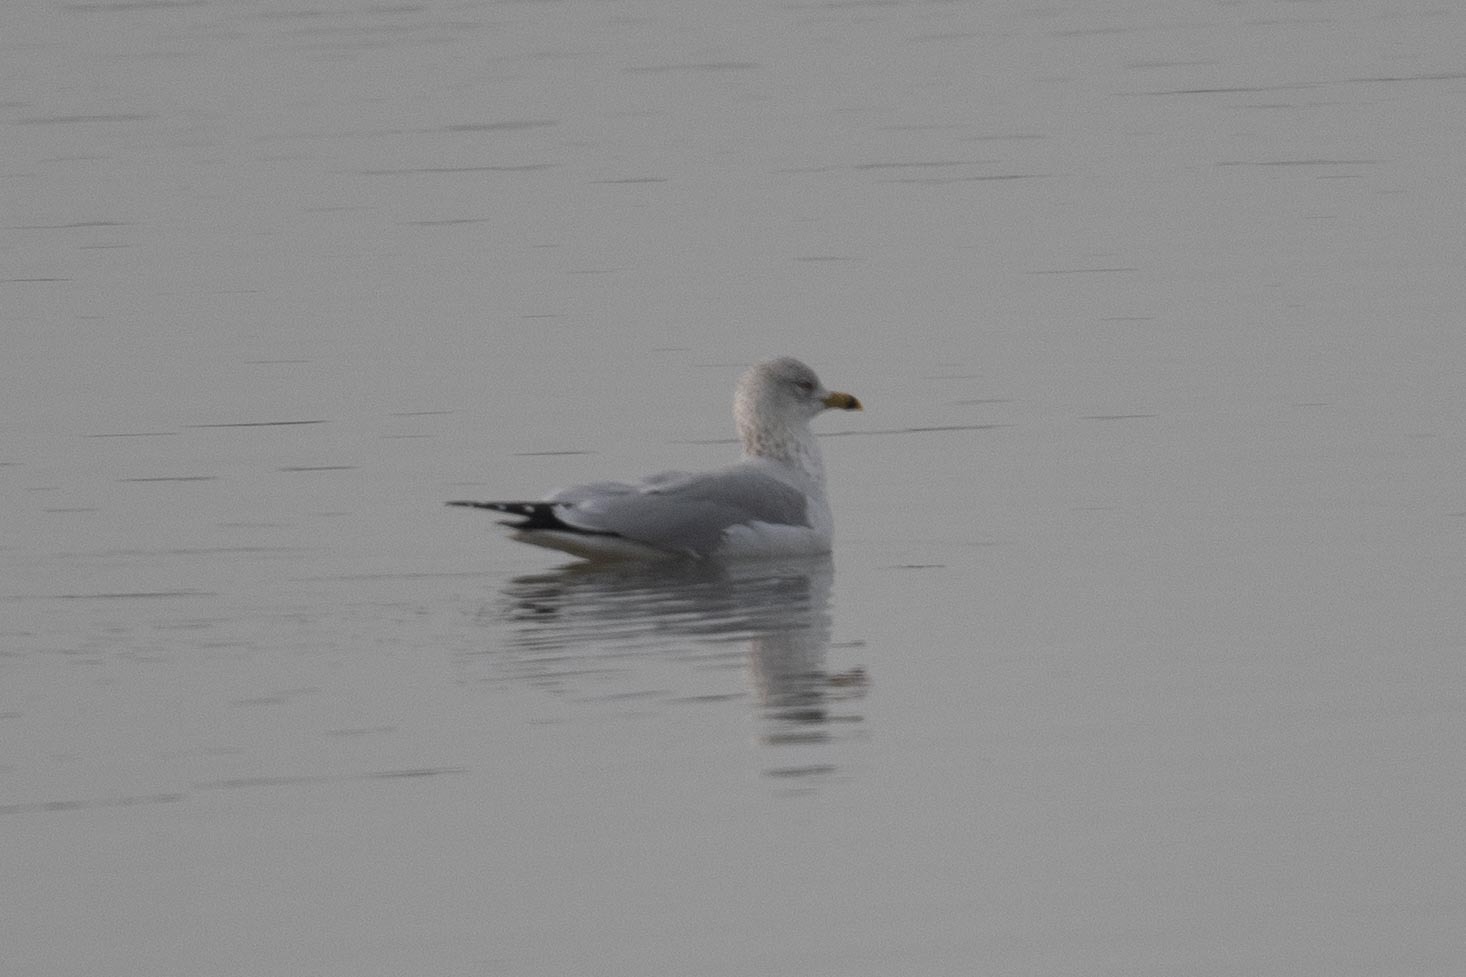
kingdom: Animalia
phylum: Chordata
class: Aves
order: Charadriiformes
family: Laridae
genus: Larus
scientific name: Larus delawarensis
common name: Ring-billed gull
